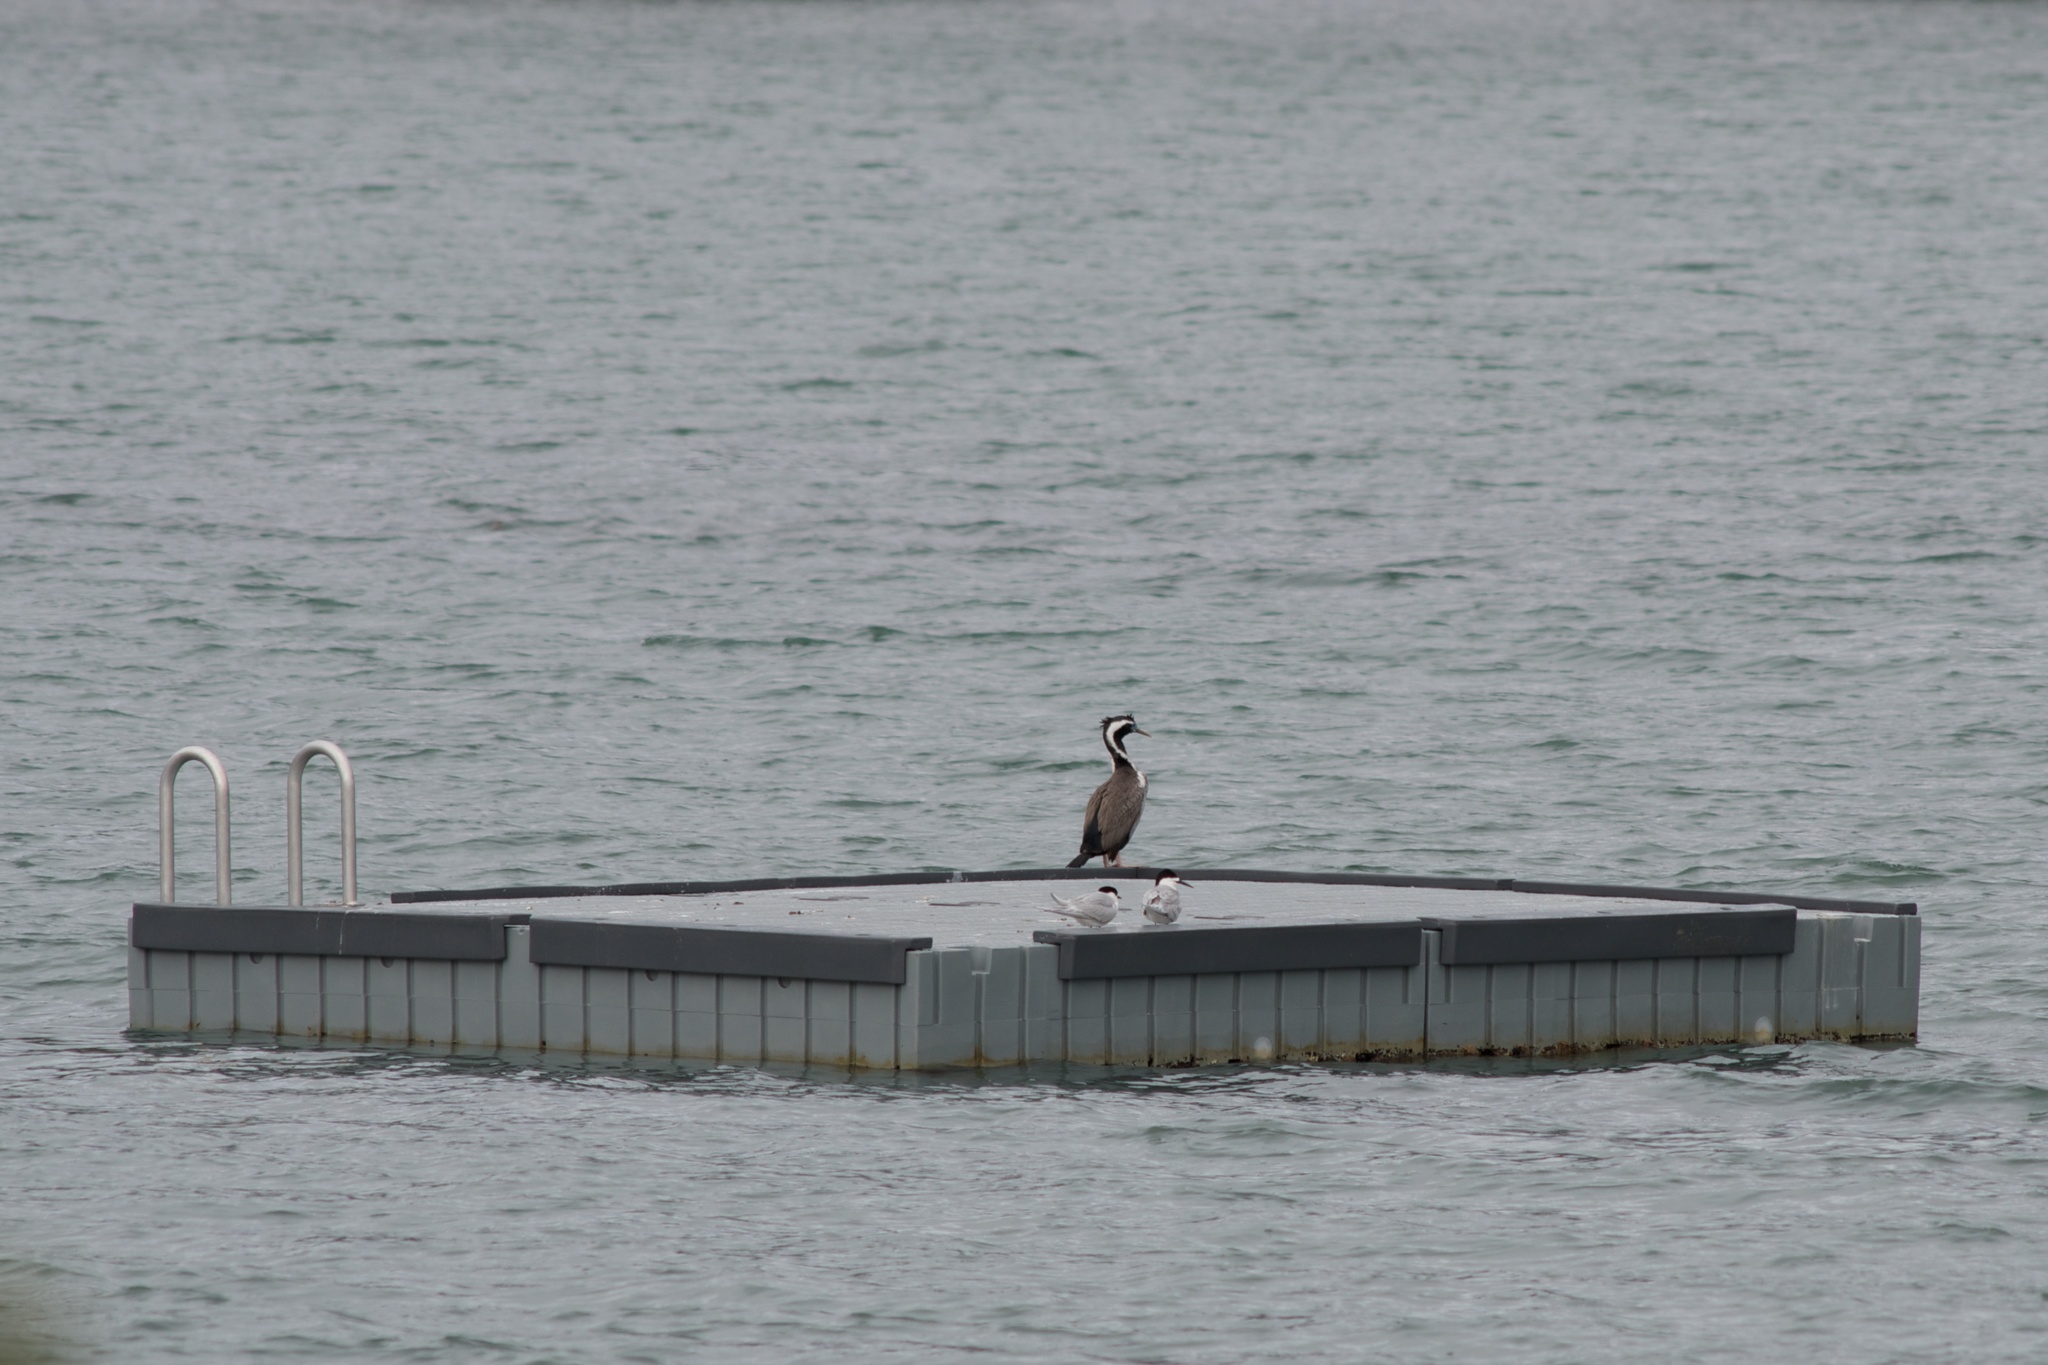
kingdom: Animalia
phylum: Chordata
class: Aves
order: Charadriiformes
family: Laridae
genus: Sterna
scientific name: Sterna striata
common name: White-fronted tern
